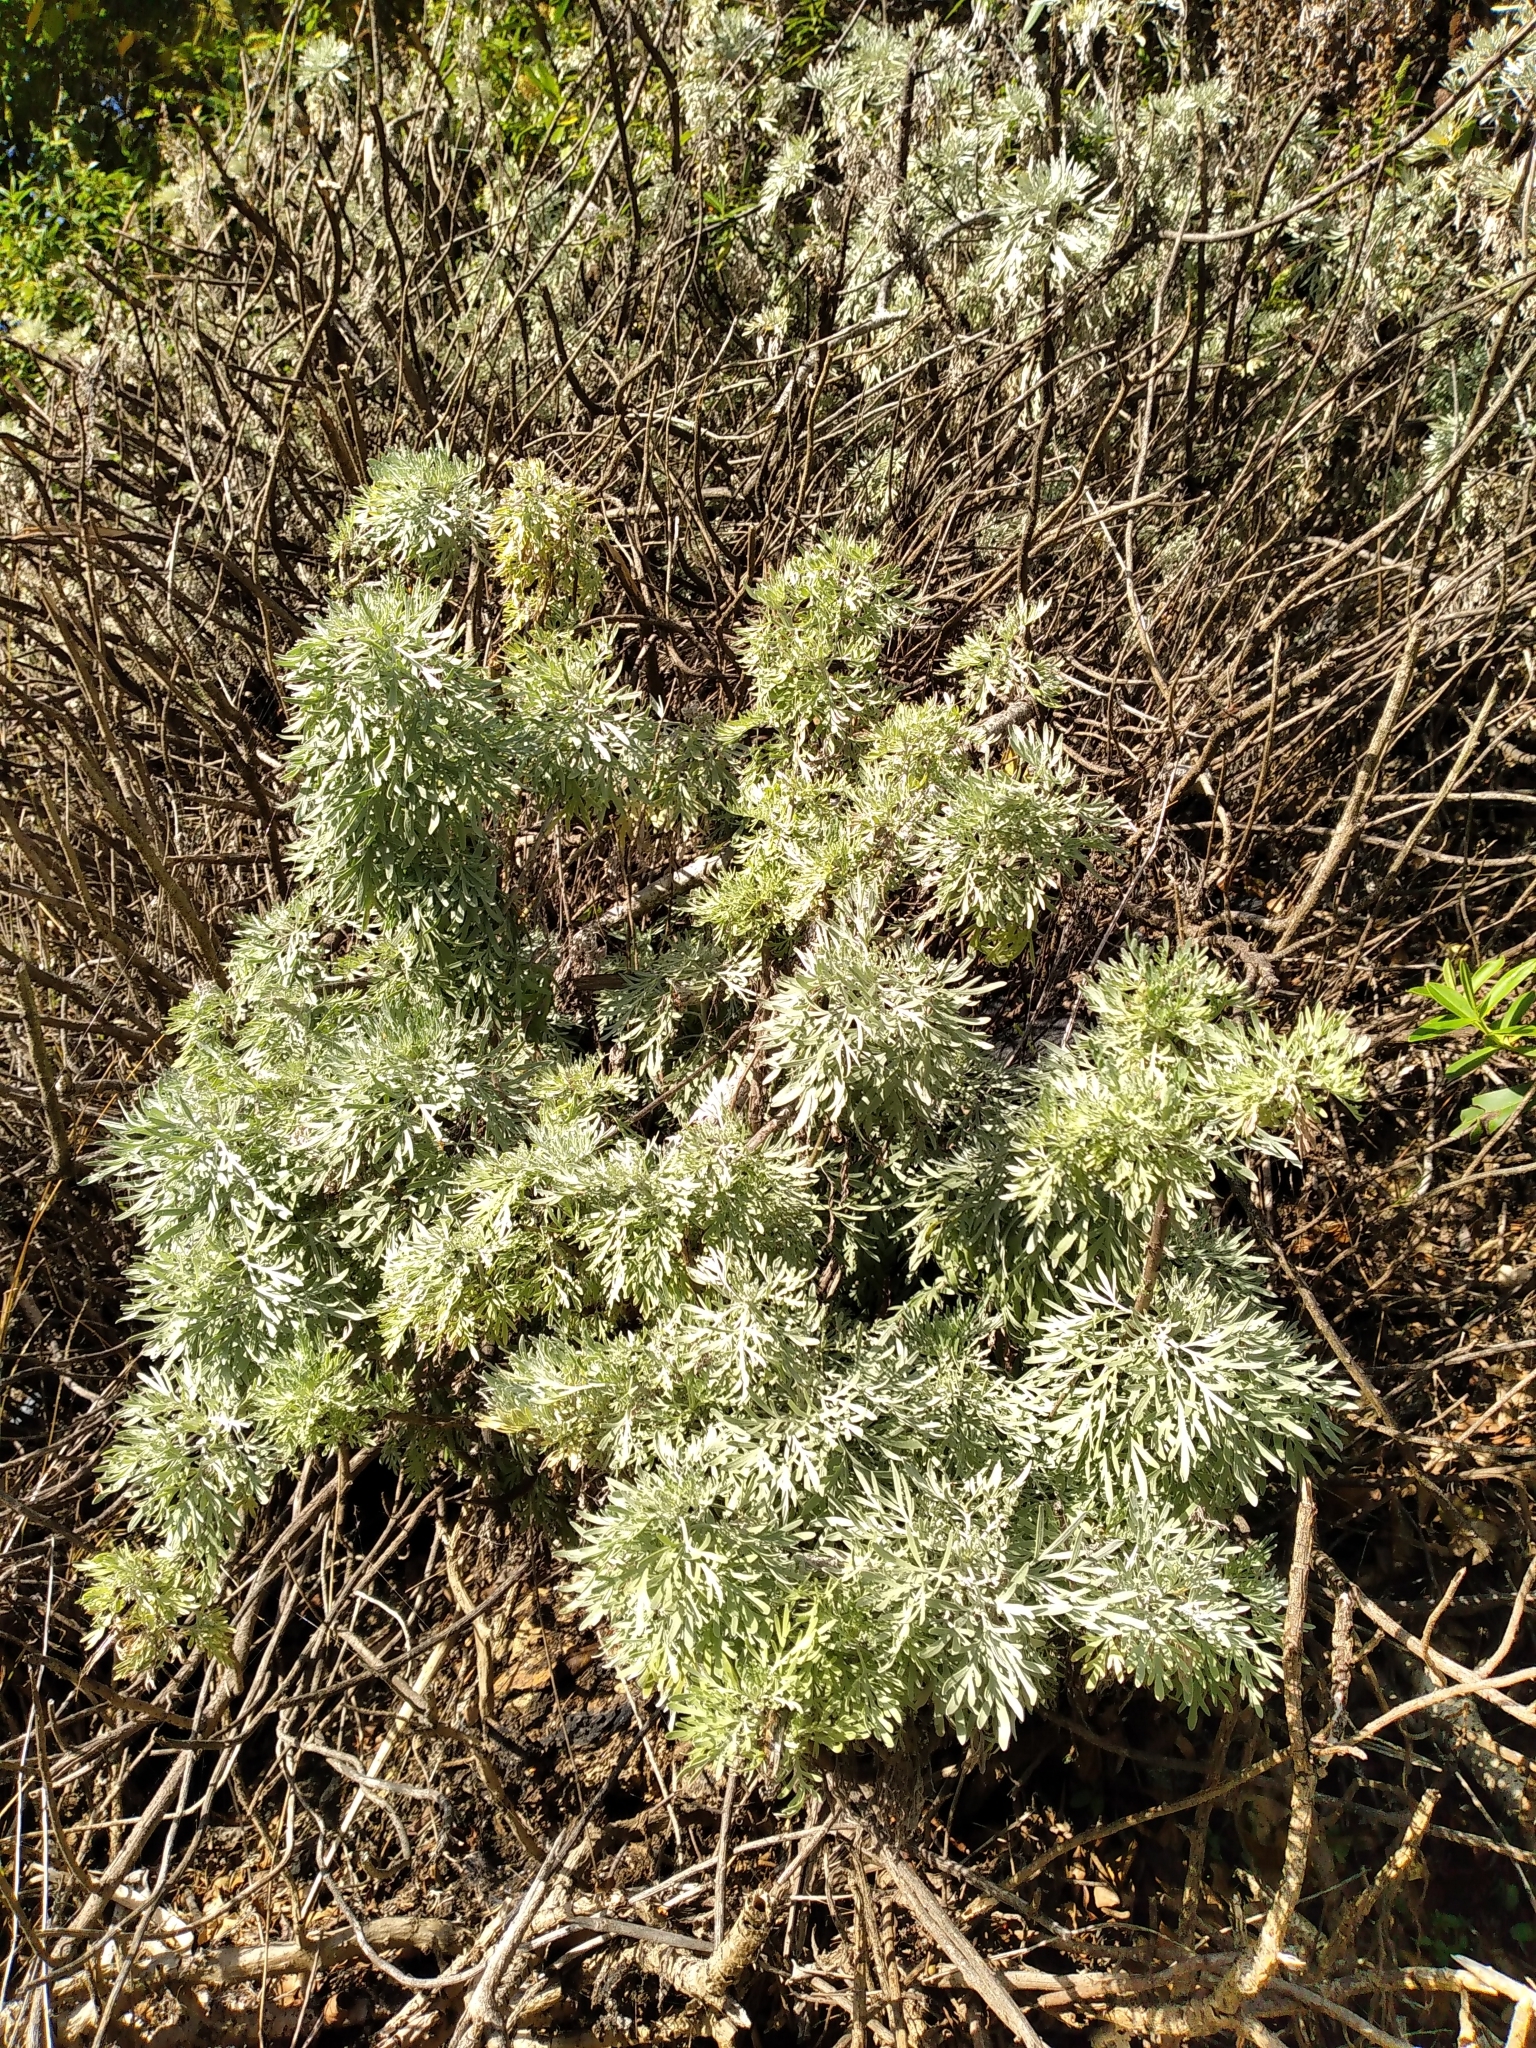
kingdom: Plantae
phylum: Tracheophyta
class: Magnoliopsida
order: Asterales
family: Asteraceae
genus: Artemisia
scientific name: Artemisia arborescens
